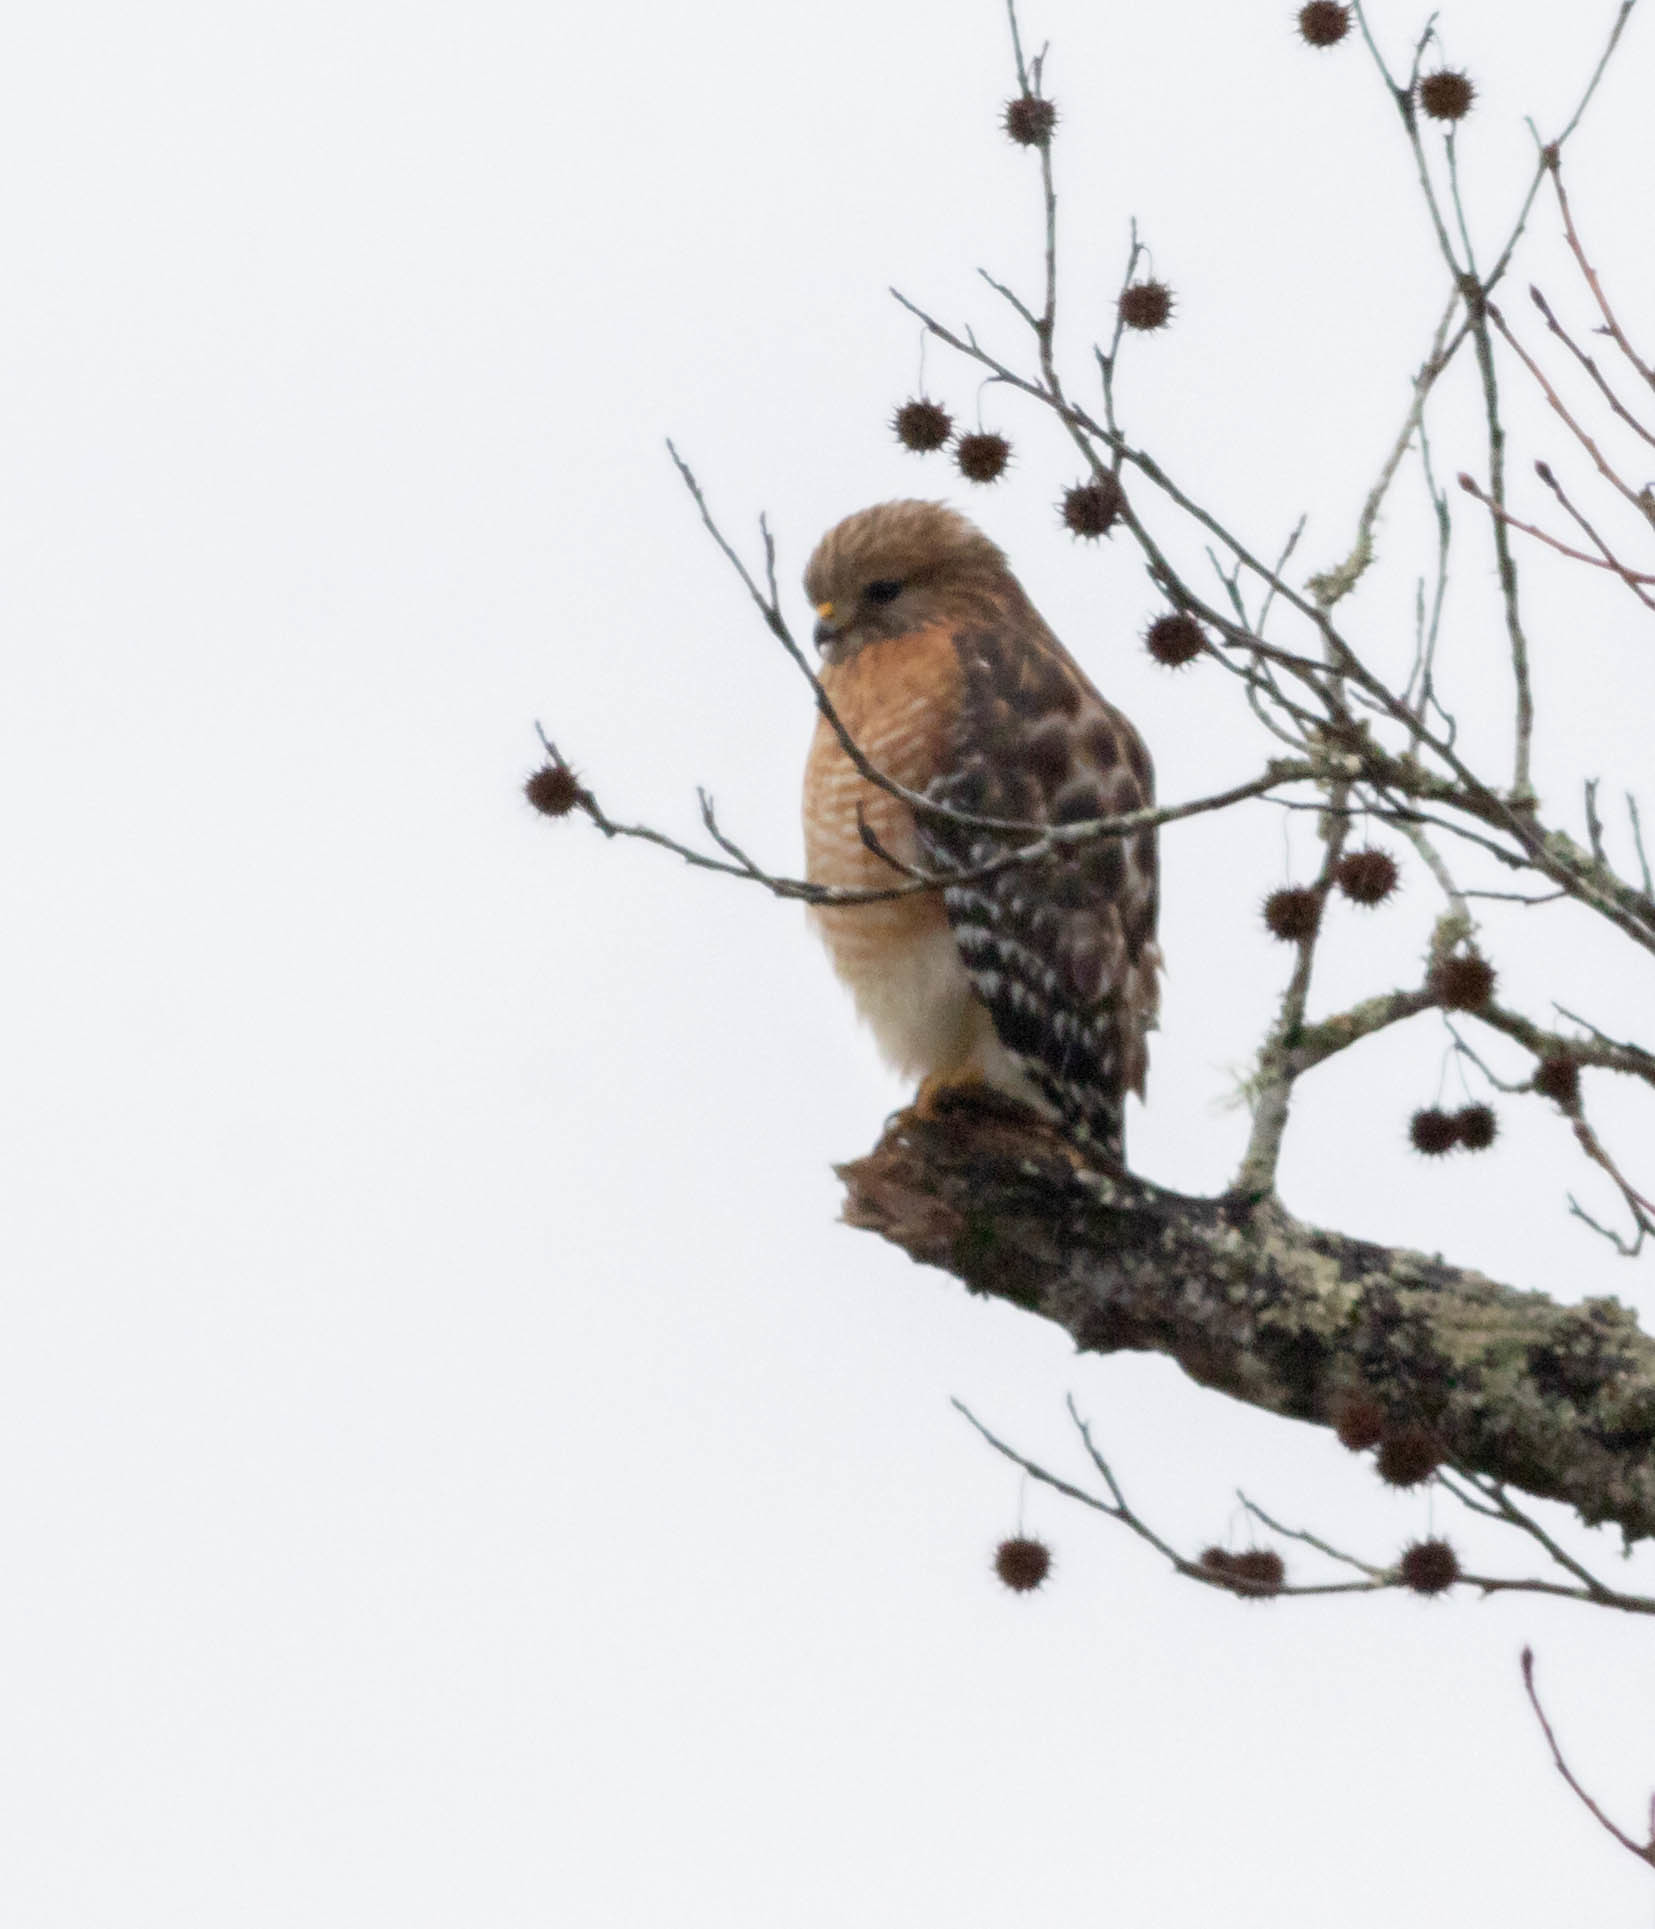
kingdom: Animalia
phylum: Chordata
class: Aves
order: Accipitriformes
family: Accipitridae
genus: Buteo
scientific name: Buteo lineatus
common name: Red-shouldered hawk
